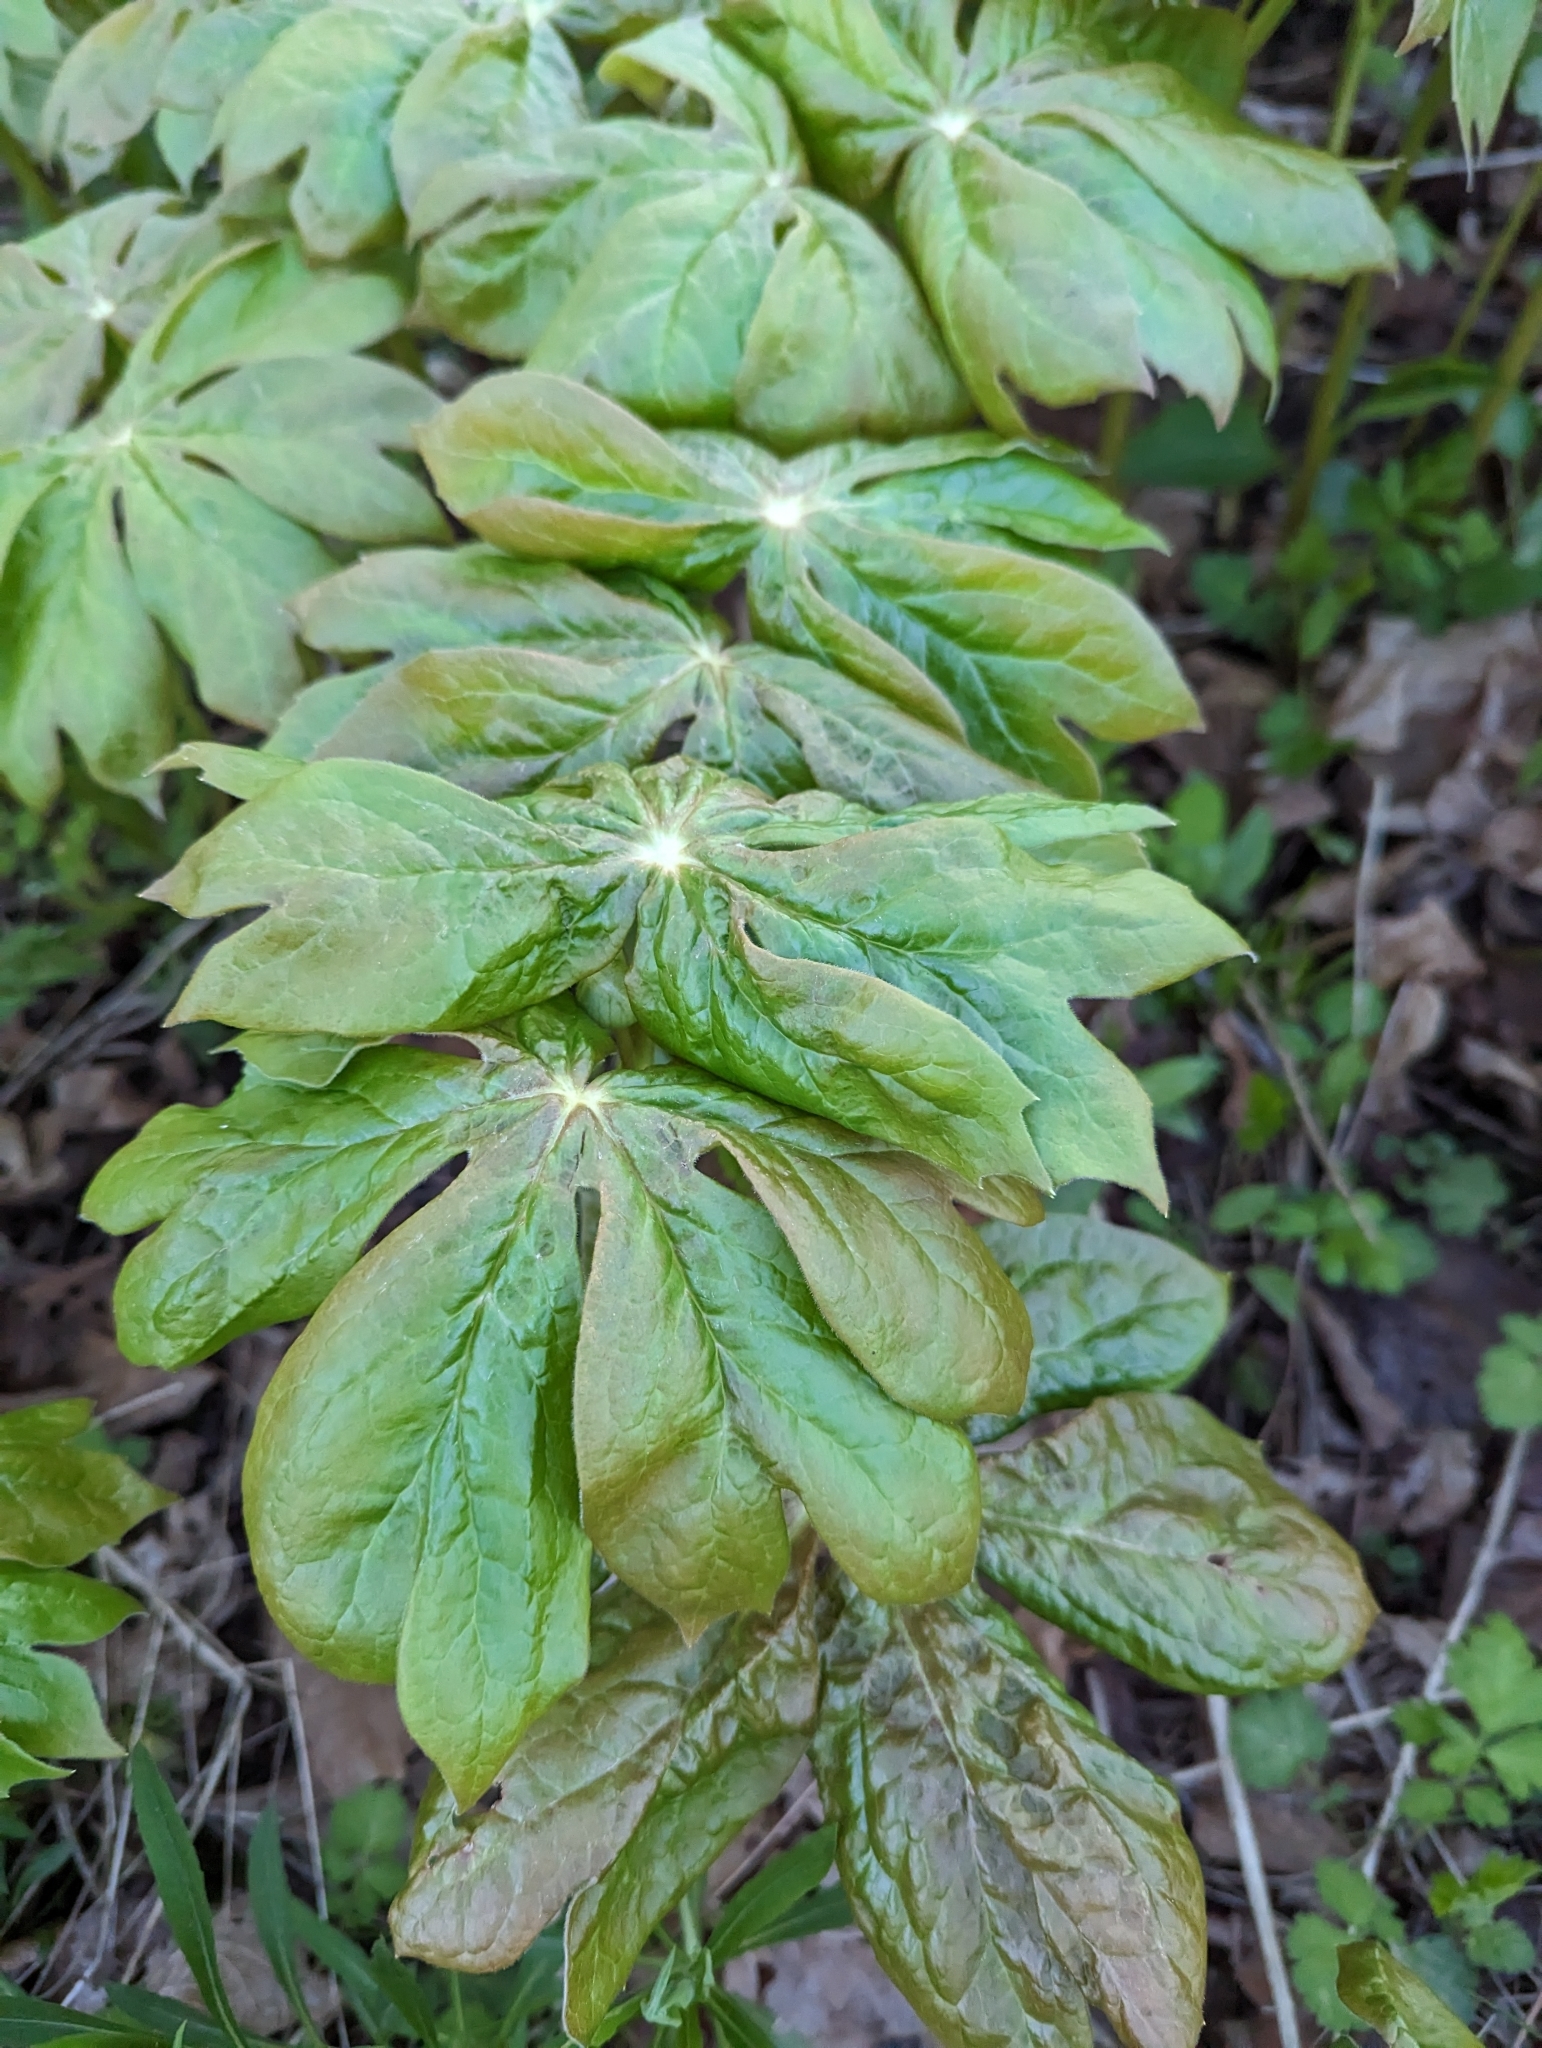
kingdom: Plantae
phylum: Tracheophyta
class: Magnoliopsida
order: Ranunculales
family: Berberidaceae
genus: Podophyllum
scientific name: Podophyllum peltatum
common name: Wild mandrake
